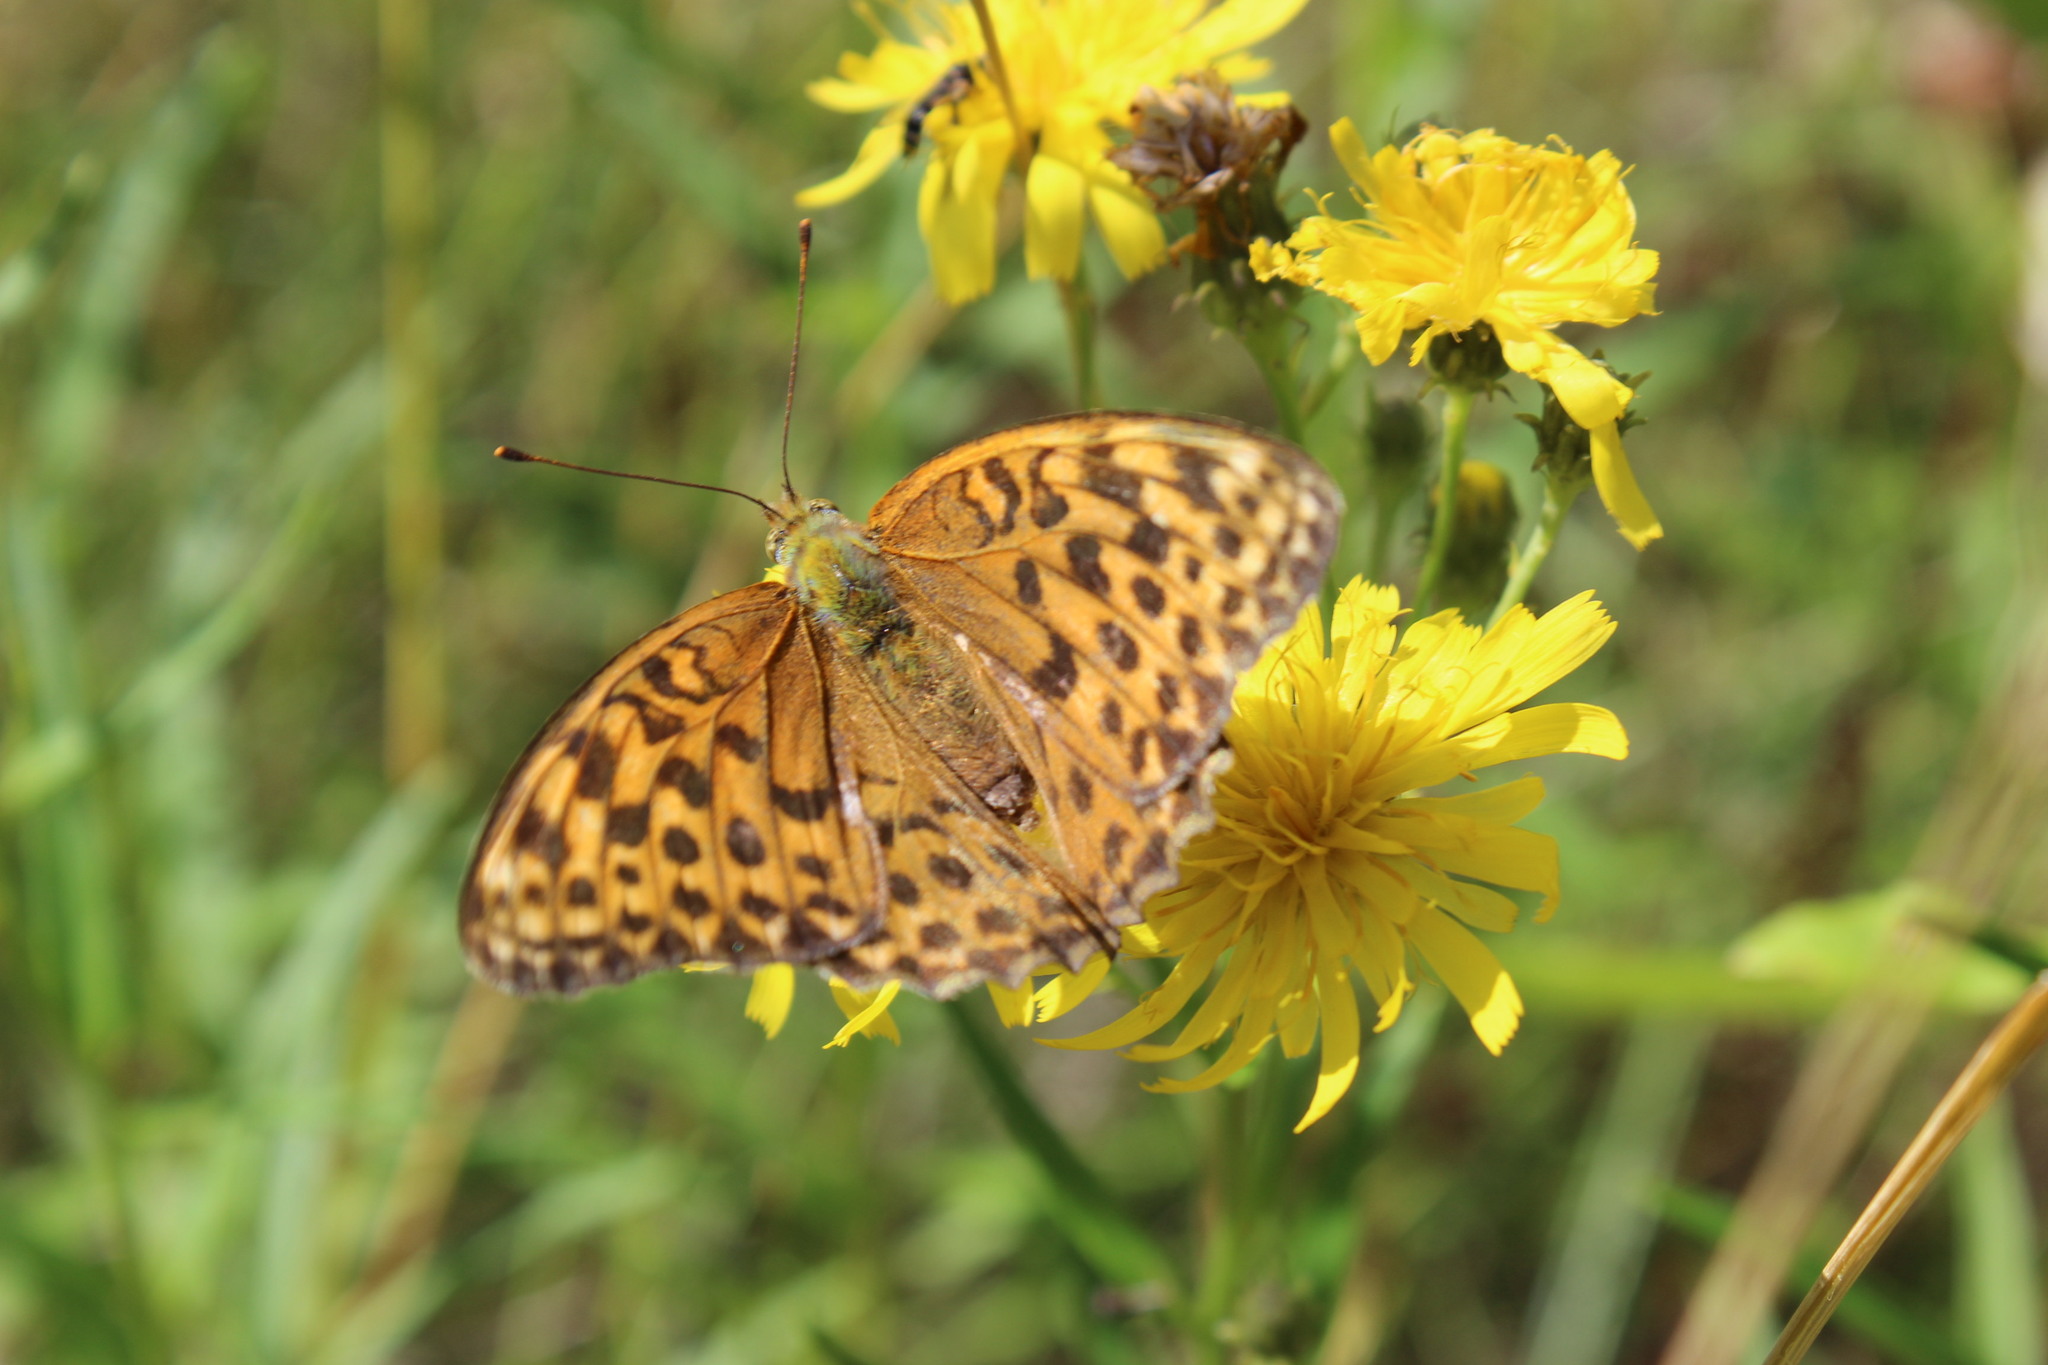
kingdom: Animalia
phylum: Arthropoda
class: Insecta
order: Lepidoptera
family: Nymphalidae
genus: Argynnis
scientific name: Argynnis paphia
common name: Silver-washed fritillary
